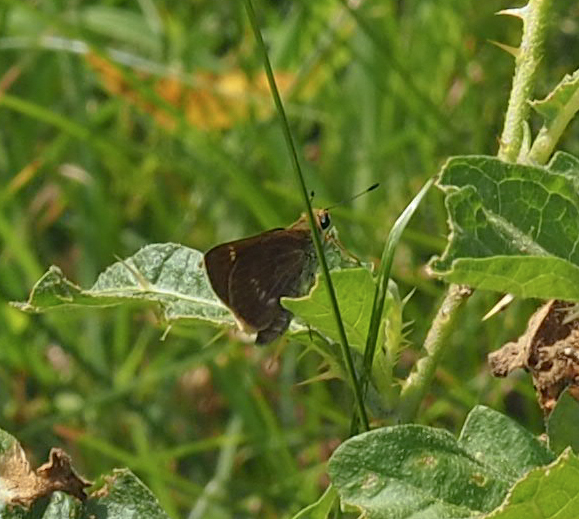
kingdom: Animalia
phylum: Arthropoda
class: Insecta
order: Lepidoptera
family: Hesperiidae
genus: Vernia
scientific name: Vernia verna
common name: Little glassywing
